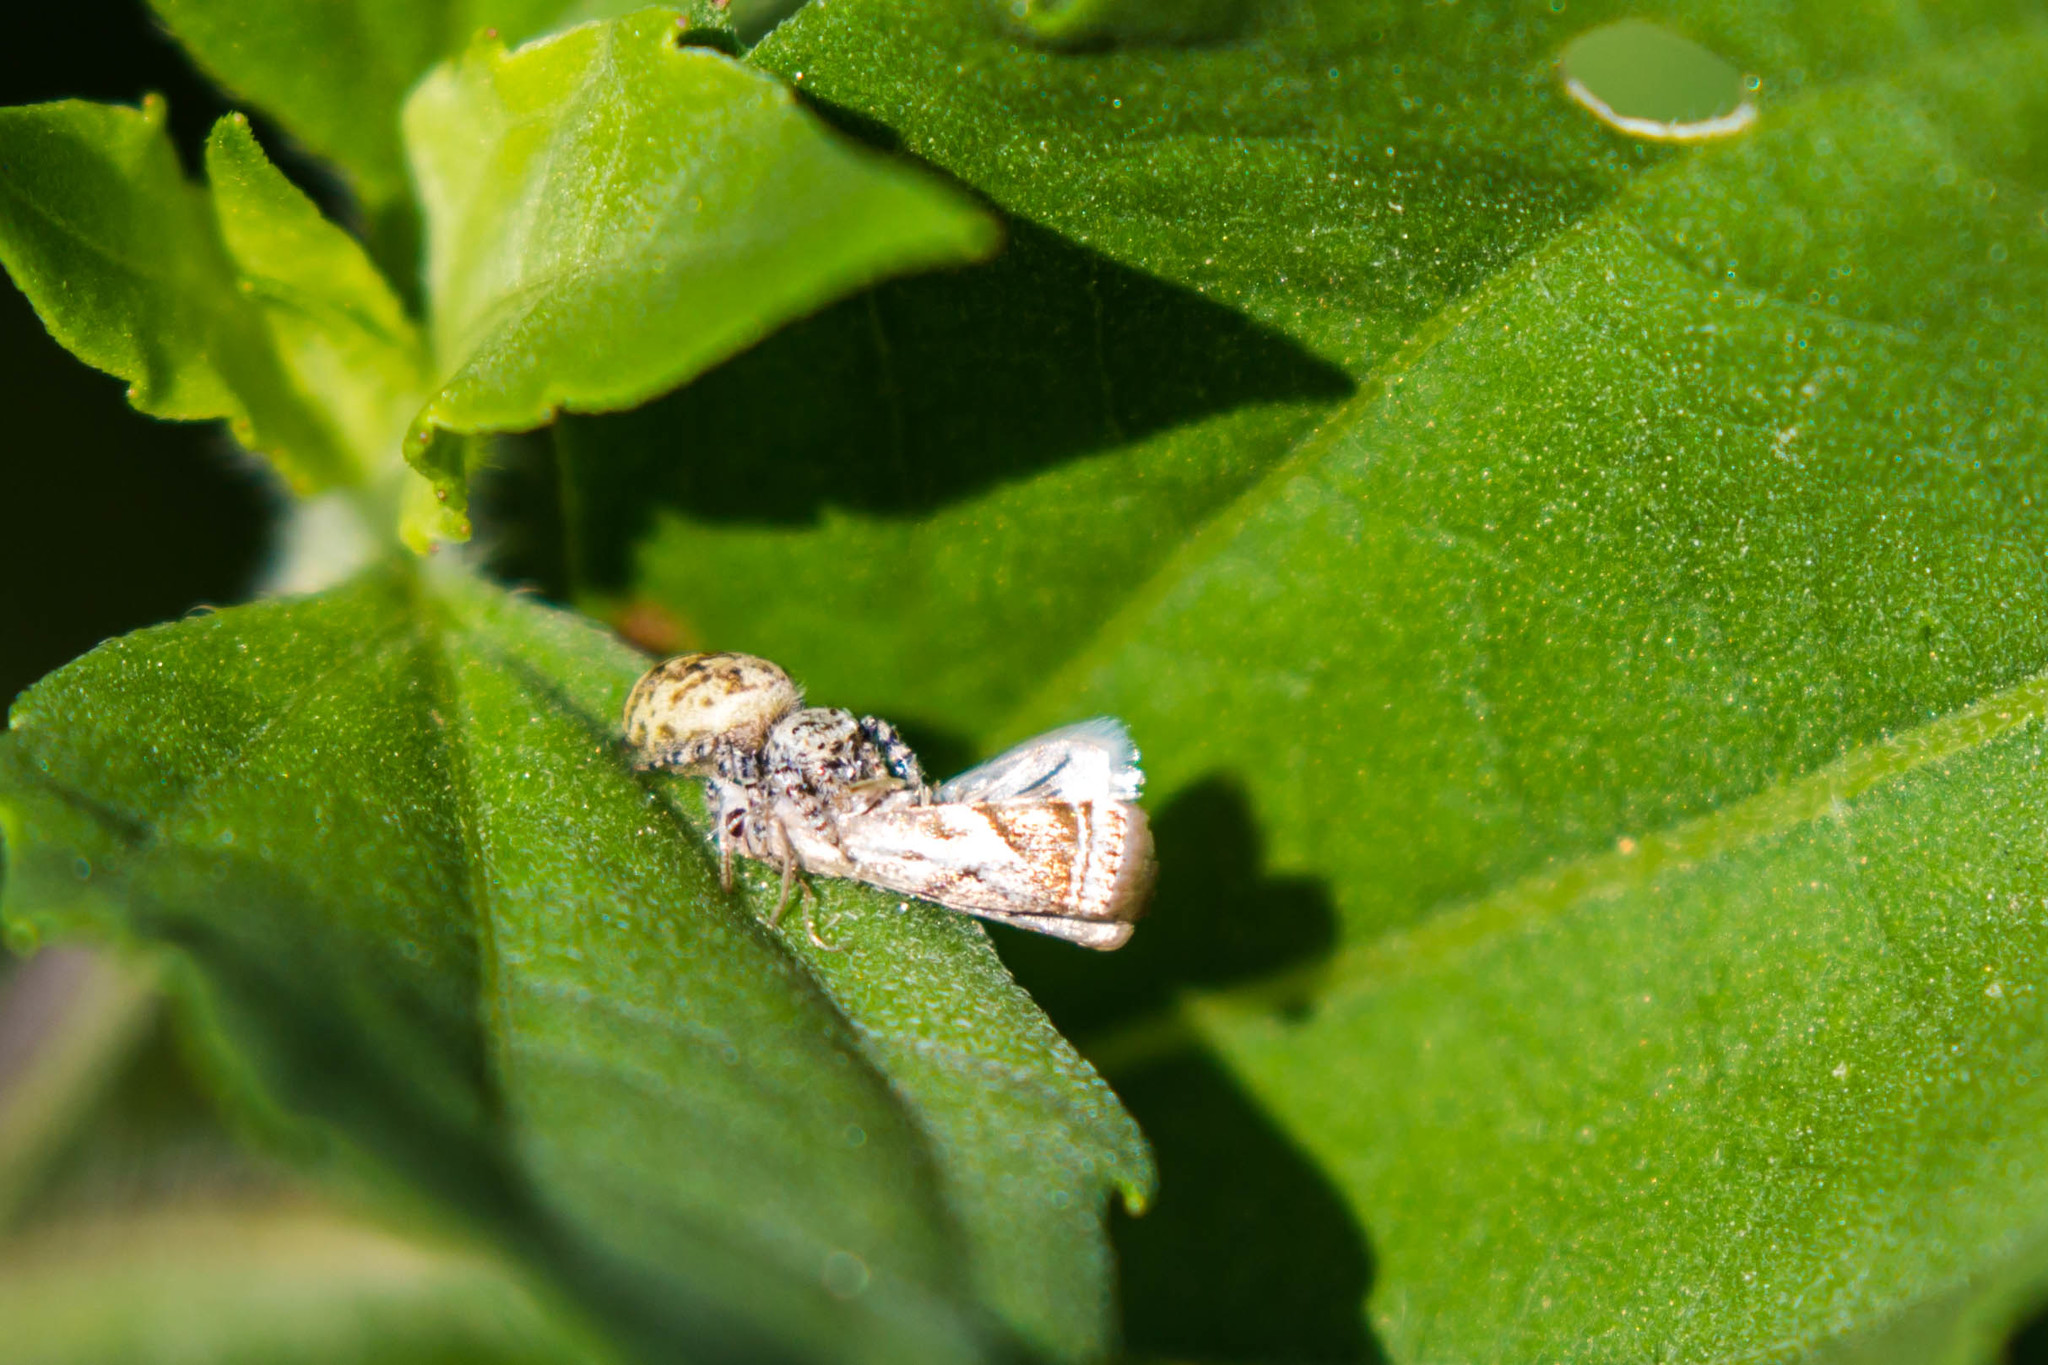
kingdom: Animalia
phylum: Arthropoda
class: Arachnida
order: Araneae
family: Salticidae
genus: Pelegrina
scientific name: Pelegrina galathea
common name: Jumping spiders
